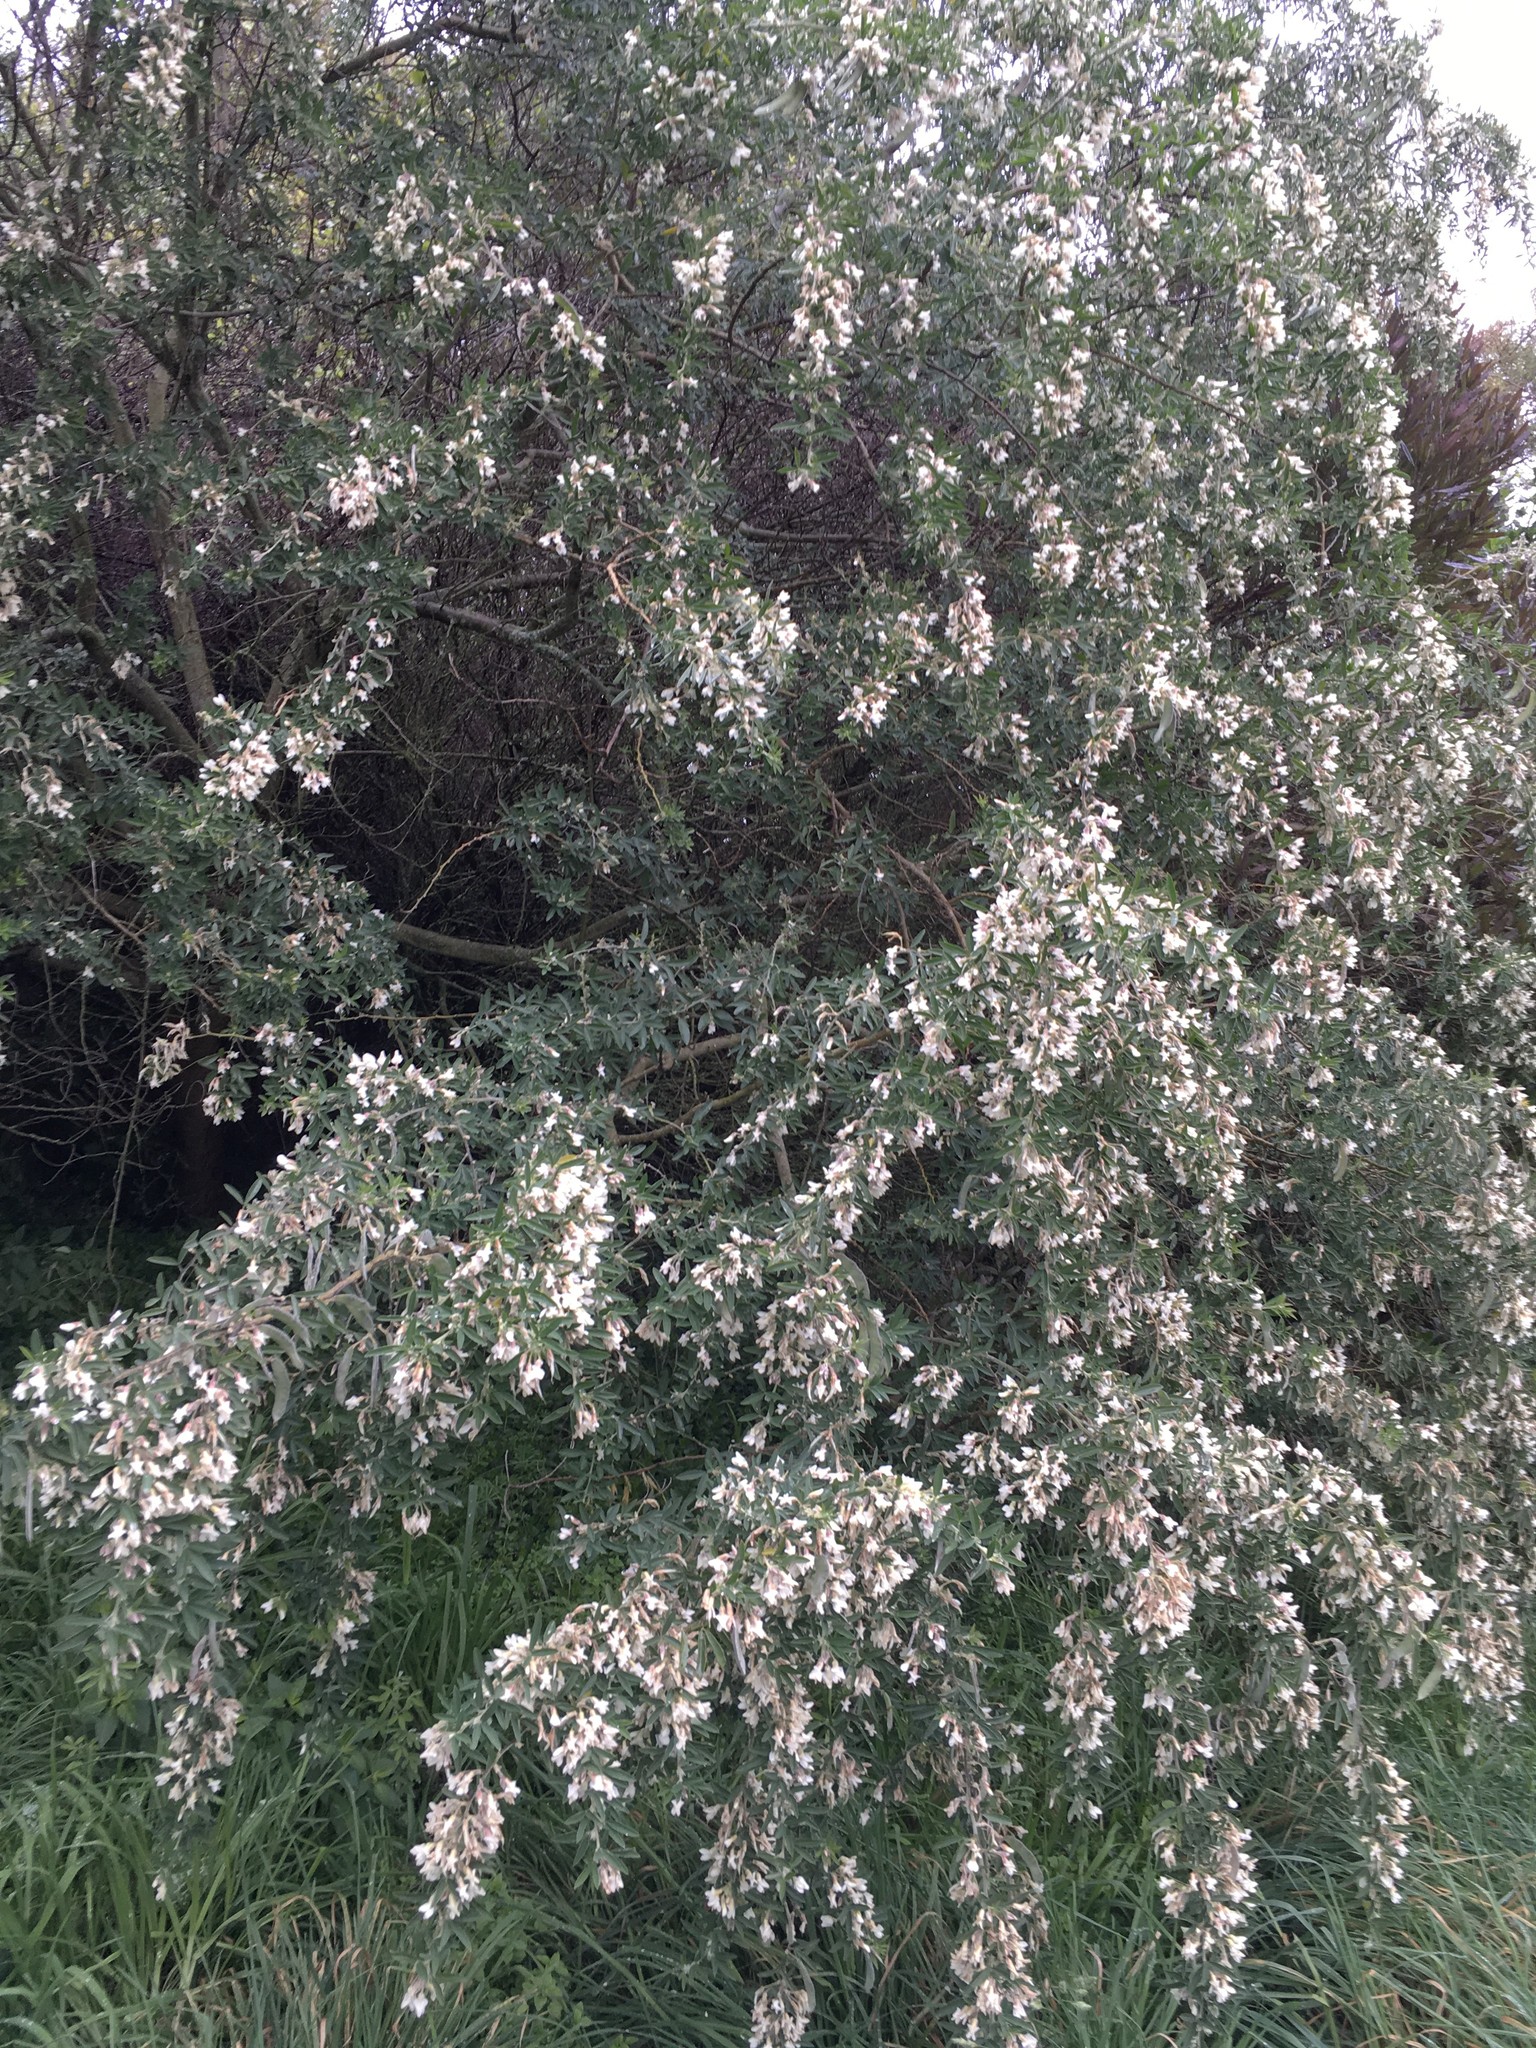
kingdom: Plantae
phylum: Tracheophyta
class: Magnoliopsida
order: Fabales
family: Fabaceae
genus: Chamaecytisus
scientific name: Chamaecytisus prolifer
